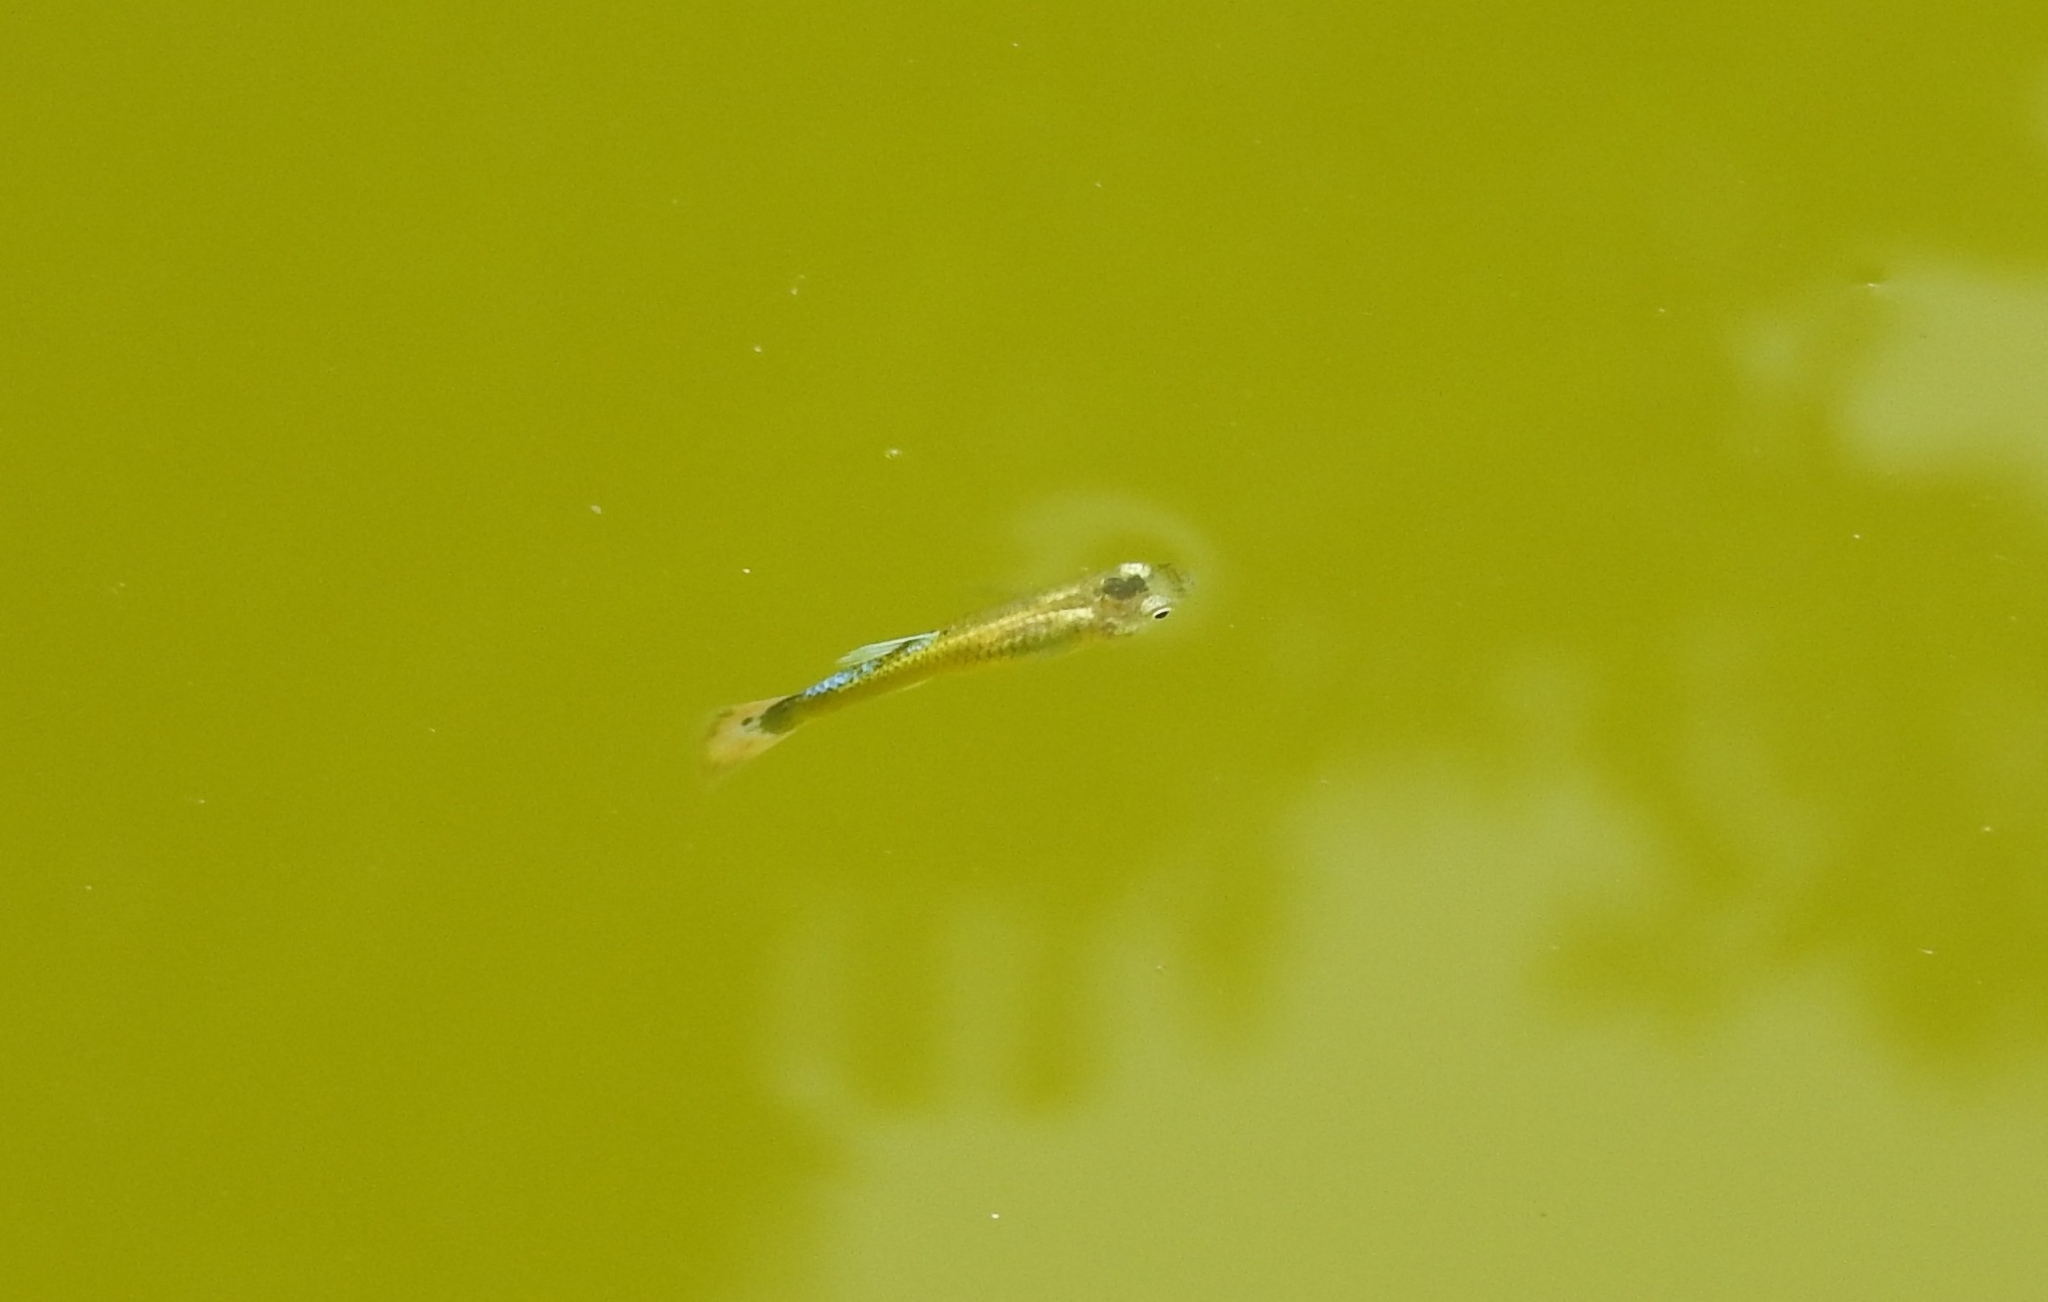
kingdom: Animalia
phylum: Chordata
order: Cyprinodontiformes
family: Poeciliidae
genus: Poecilia
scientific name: Poecilia reticulata
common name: Guppy
